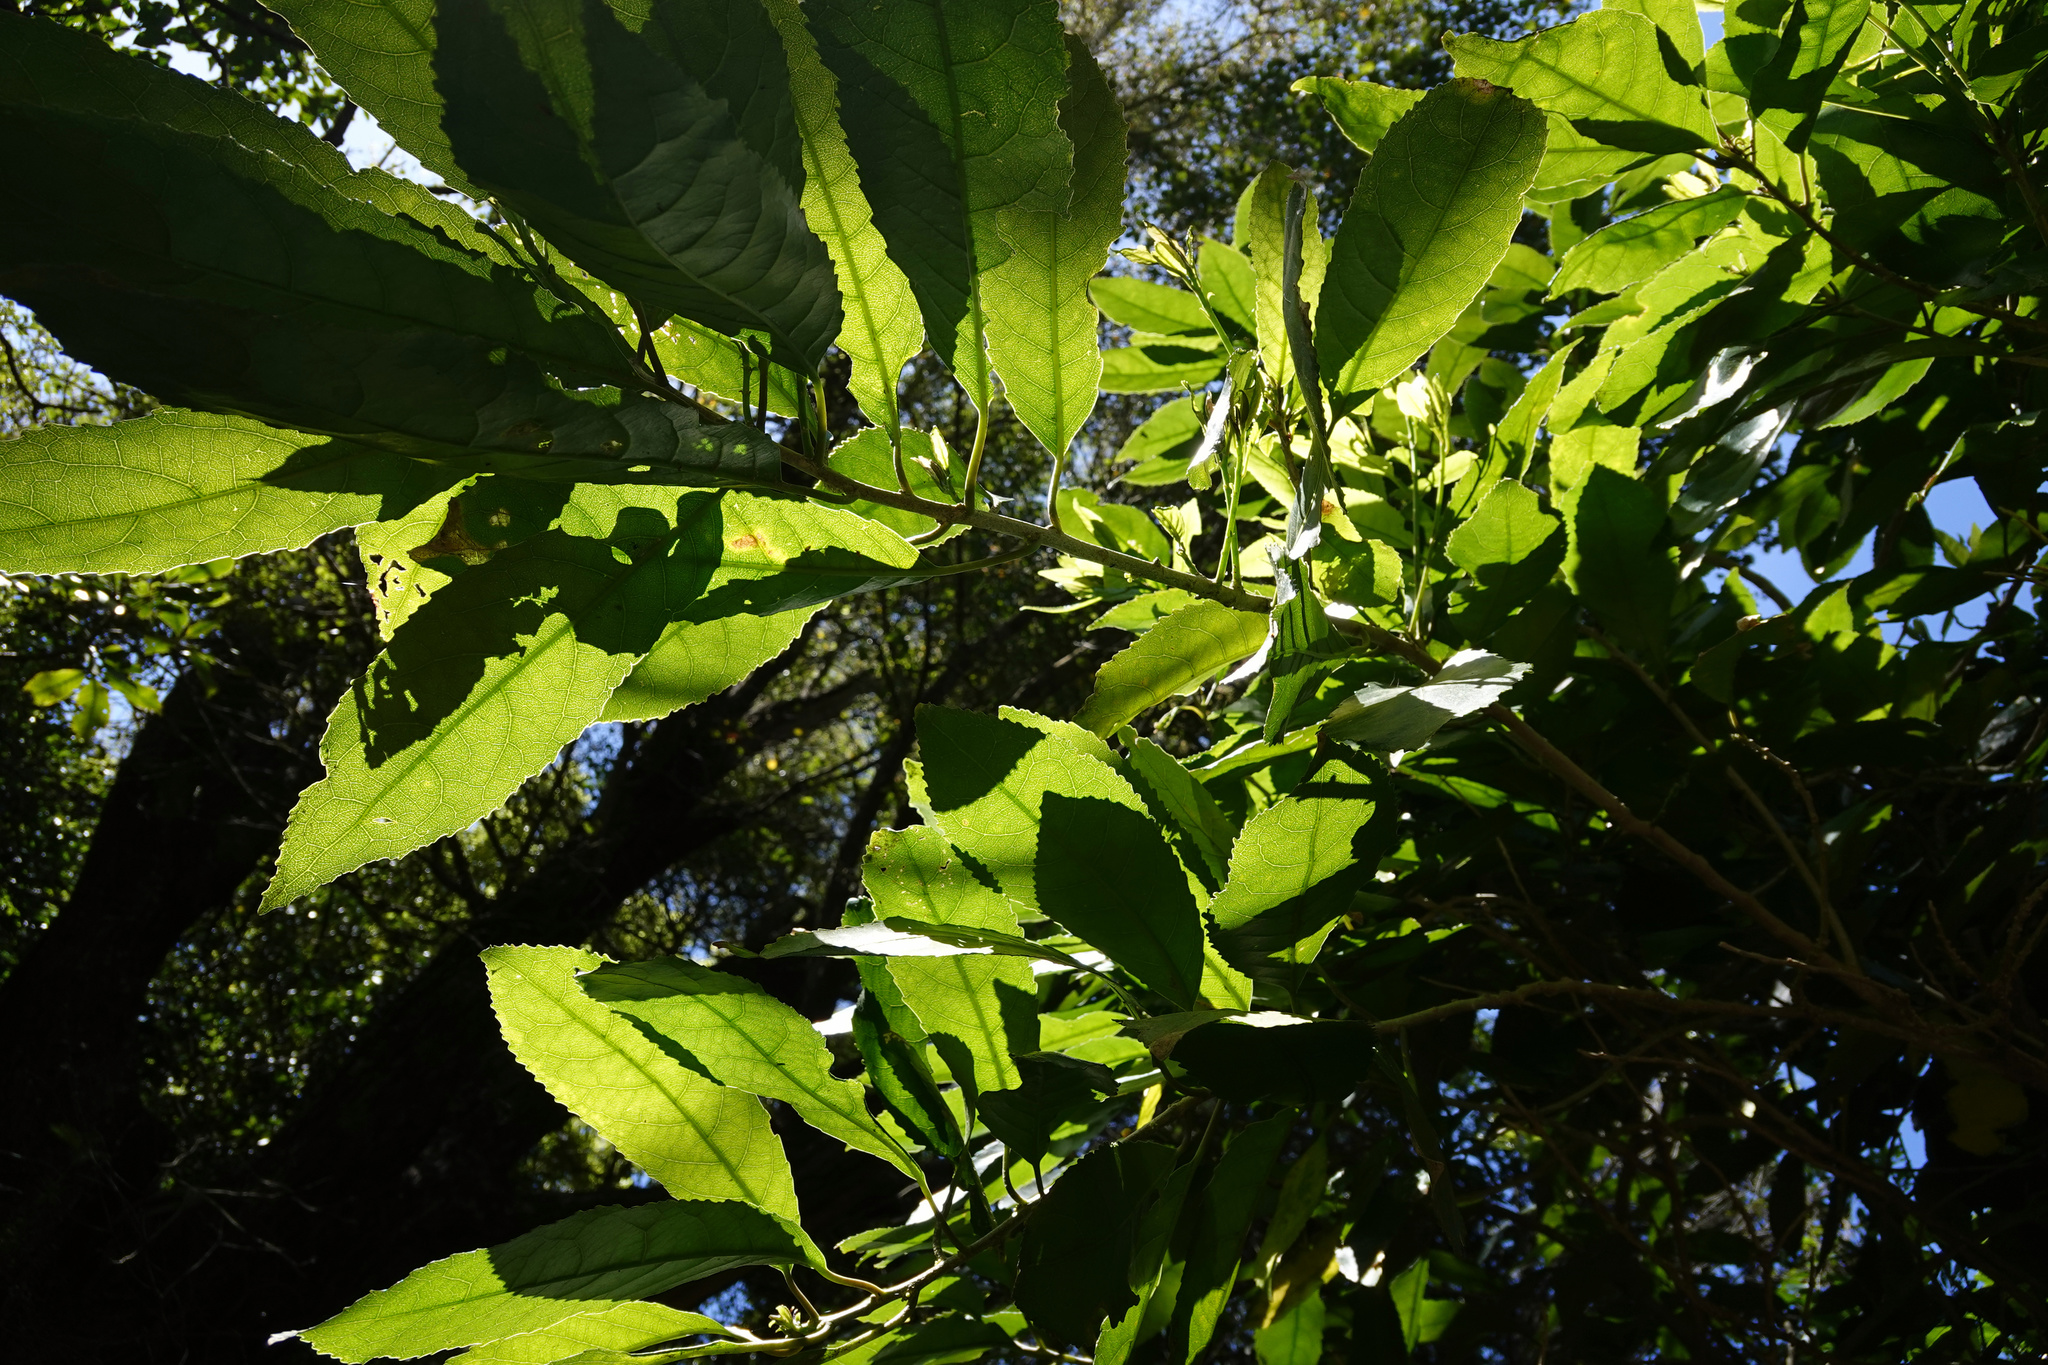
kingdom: Plantae
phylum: Tracheophyta
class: Magnoliopsida
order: Malpighiales
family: Violaceae
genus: Melicytus
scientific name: Melicytus ramiflorus
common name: Mahoe
